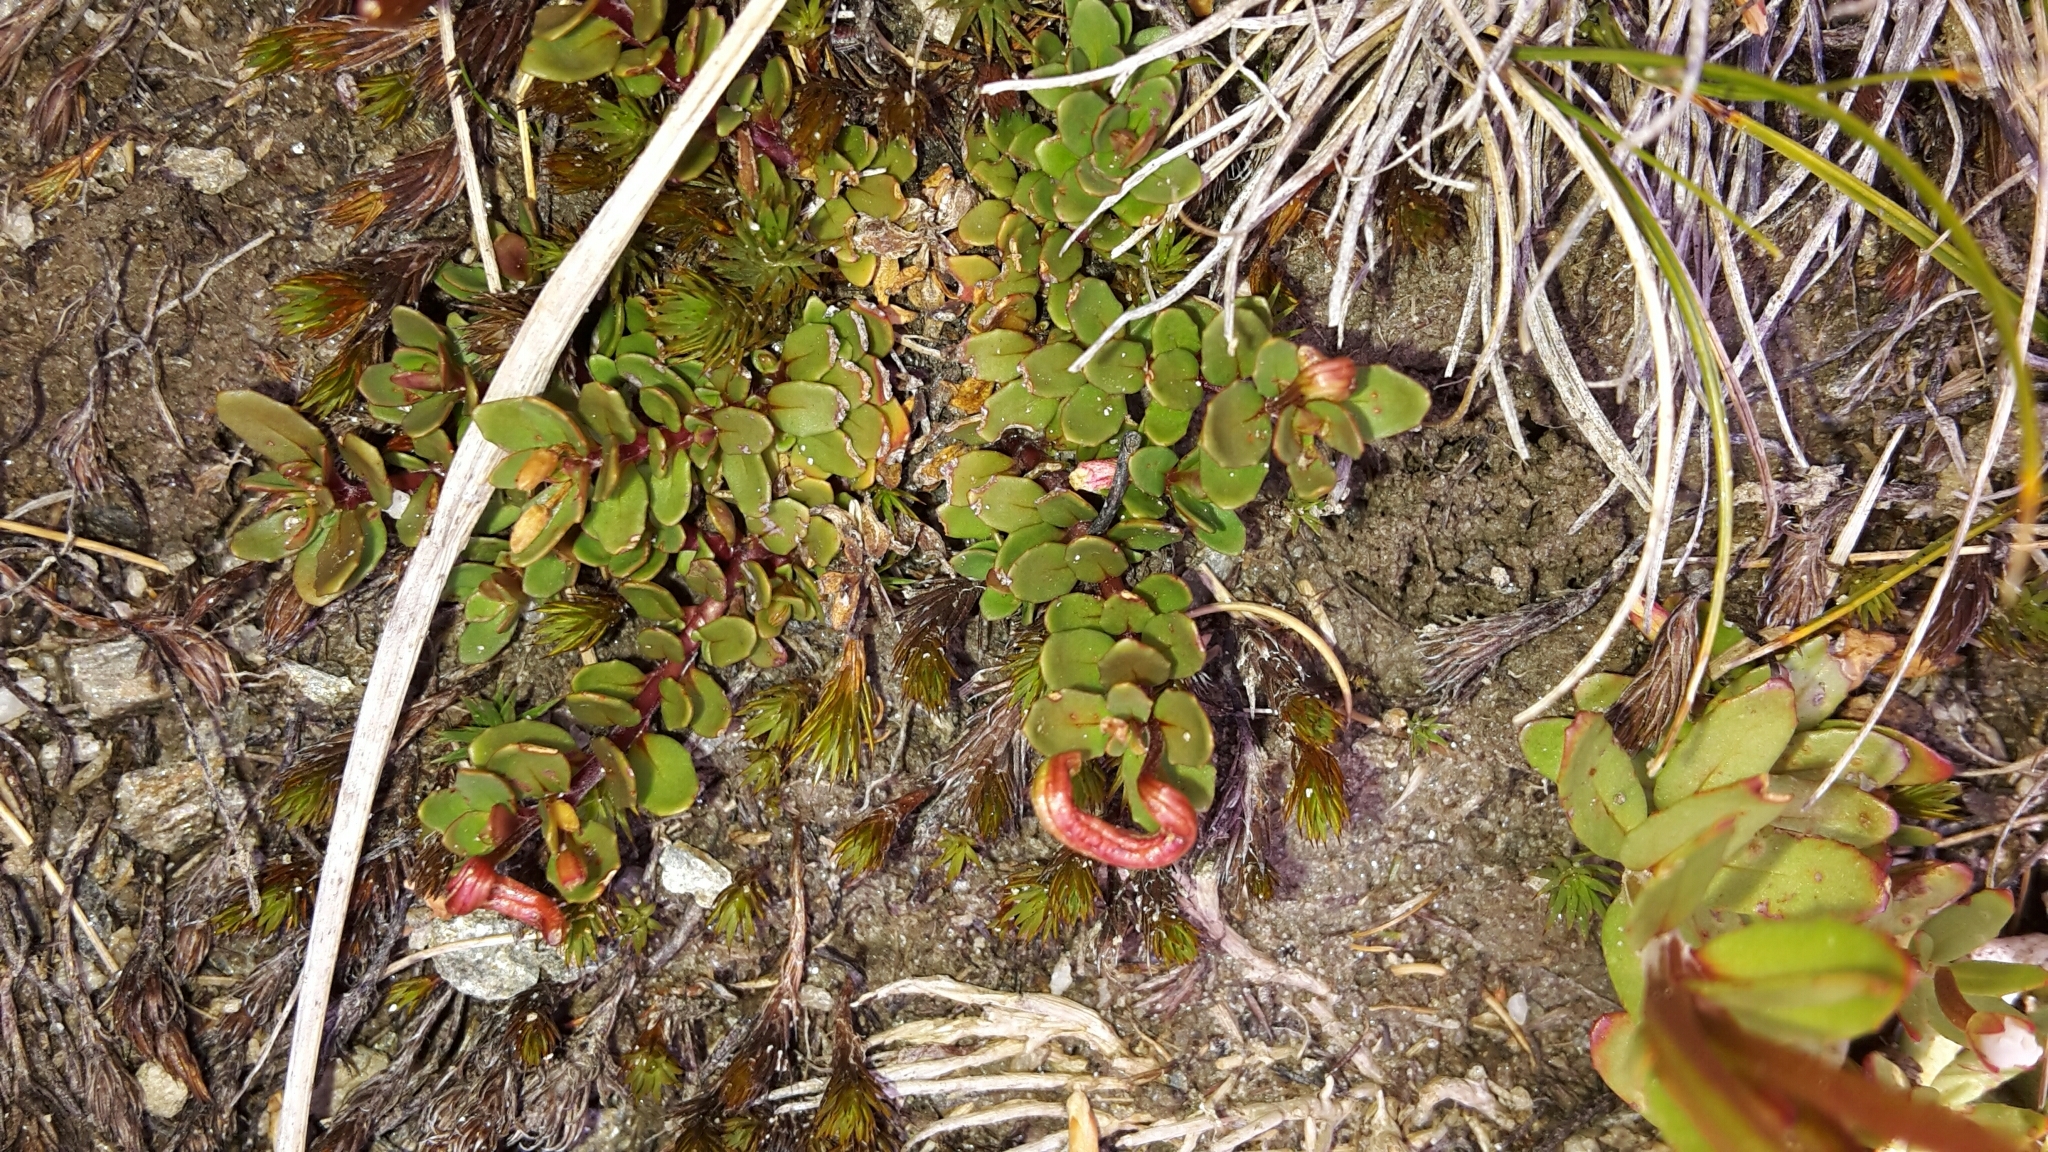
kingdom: Plantae
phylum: Tracheophyta
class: Magnoliopsida
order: Myrtales
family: Onagraceae
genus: Epilobium
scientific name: Epilobium tasmanicum
